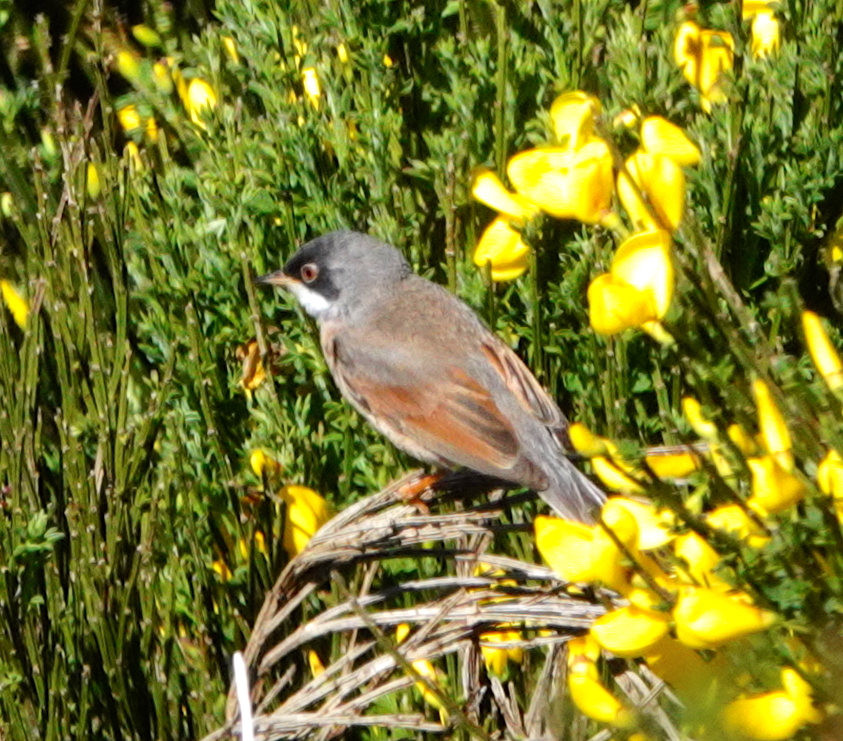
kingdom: Animalia
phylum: Chordata
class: Aves
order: Passeriformes
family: Sylviidae
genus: Sylvia
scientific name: Sylvia conspicillata
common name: Spectacled warbler
